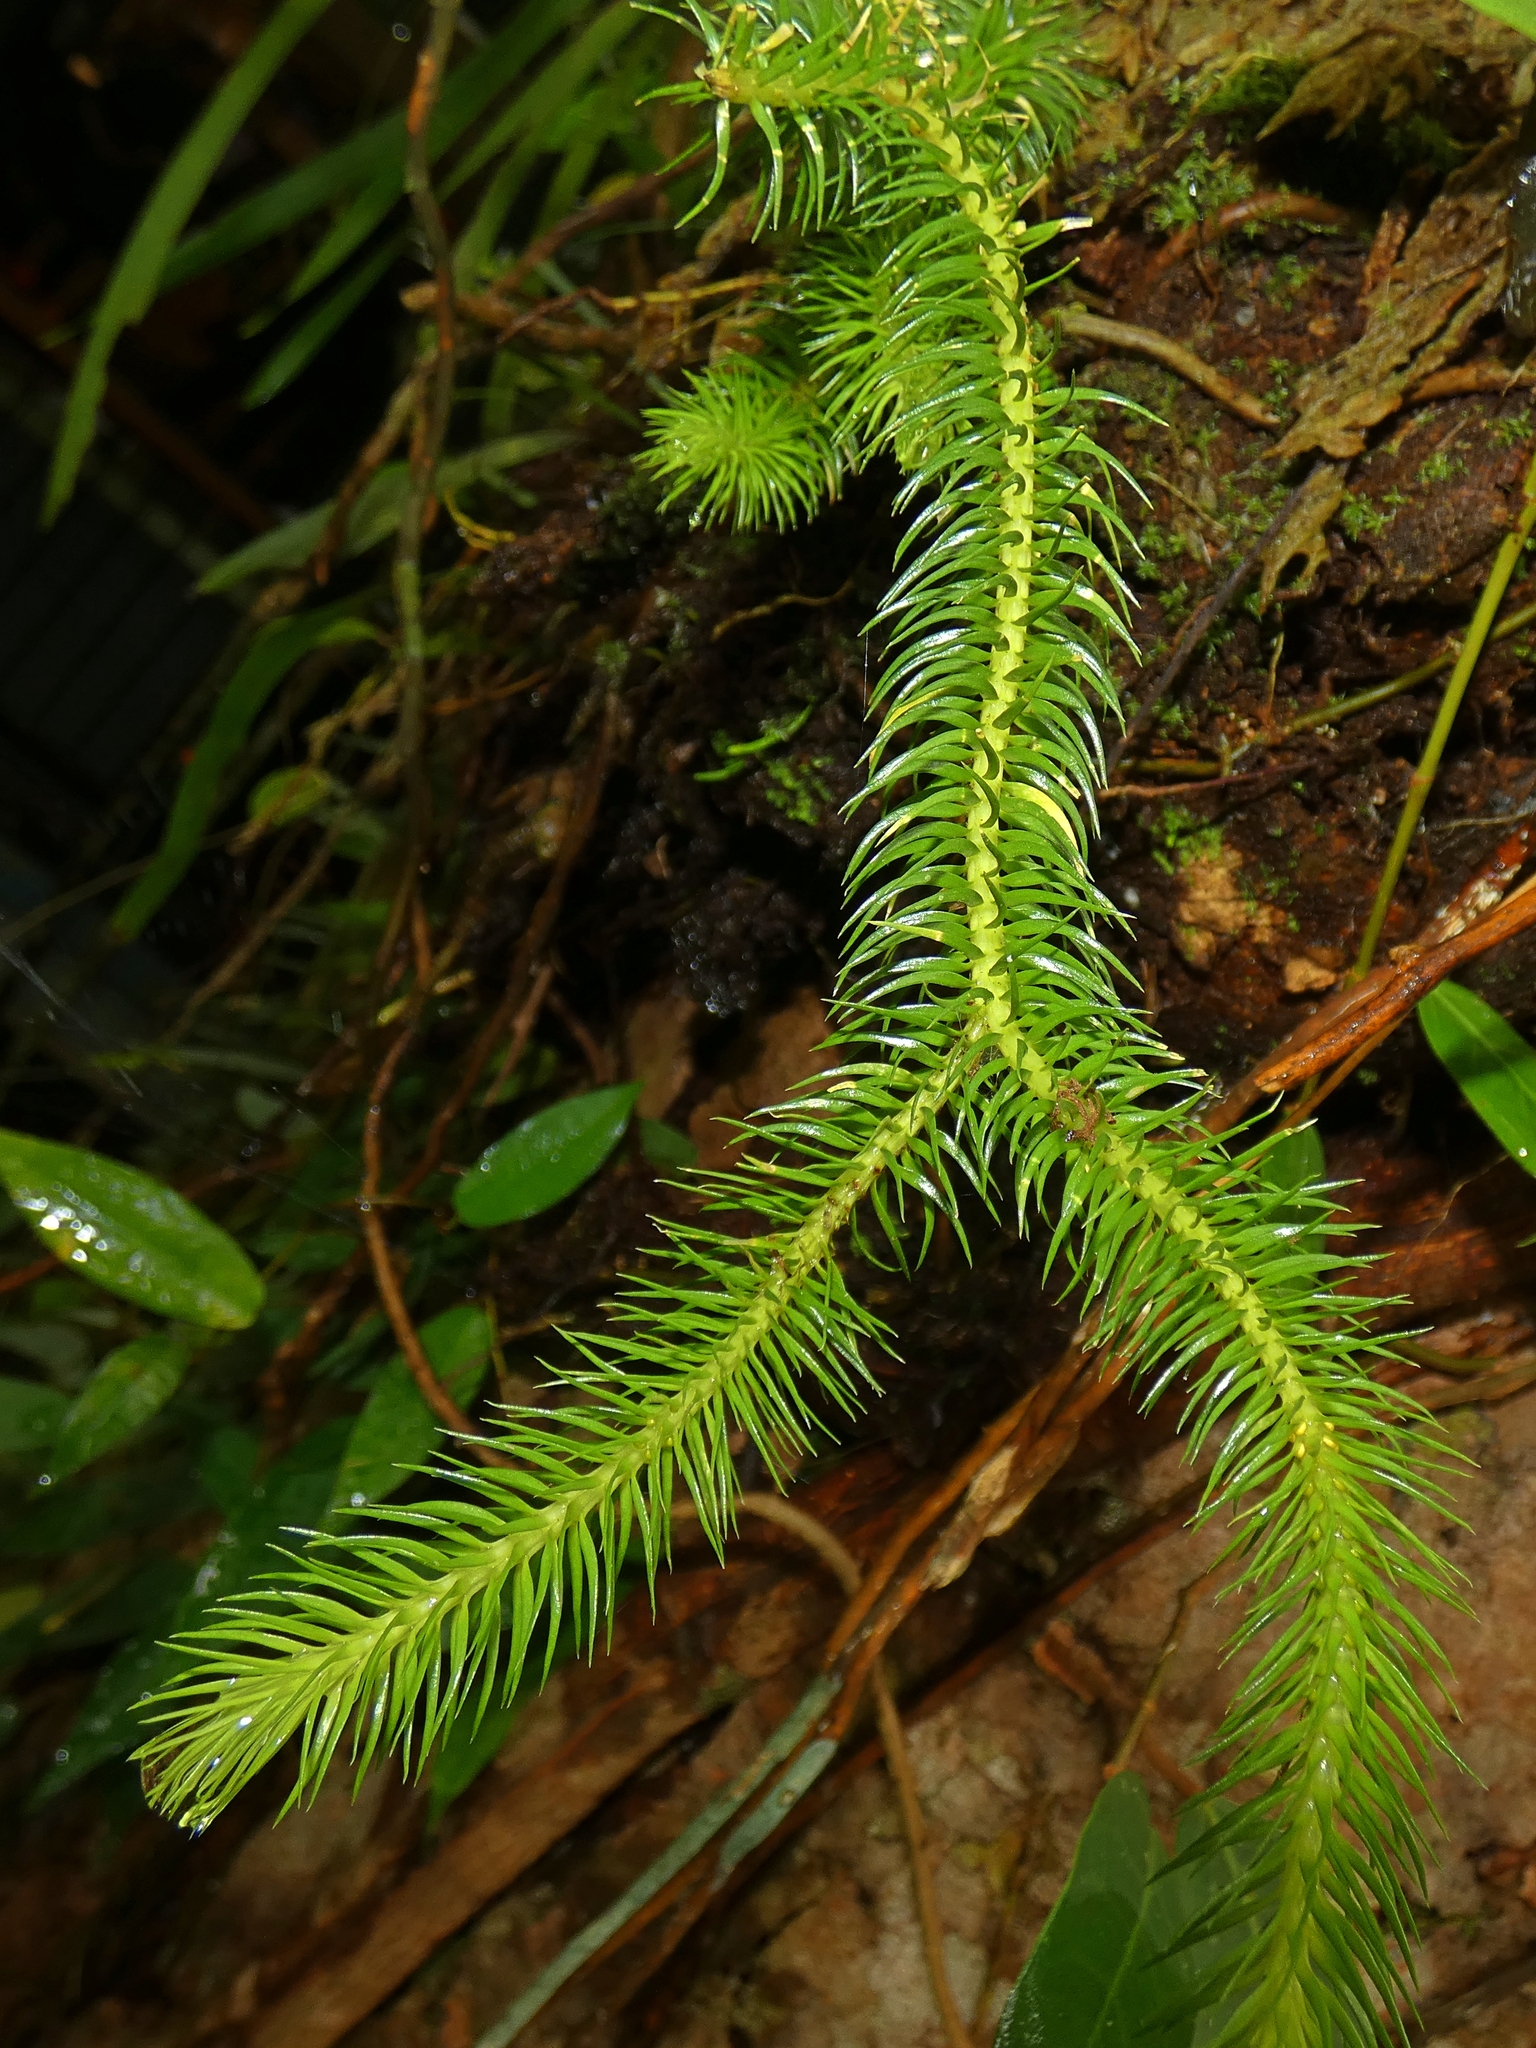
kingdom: Plantae
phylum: Tracheophyta
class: Lycopodiopsida
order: Lycopodiales
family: Lycopodiaceae
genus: Phlegmariurus
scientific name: Phlegmariurus squarrosus
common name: Rock tassel-fern
